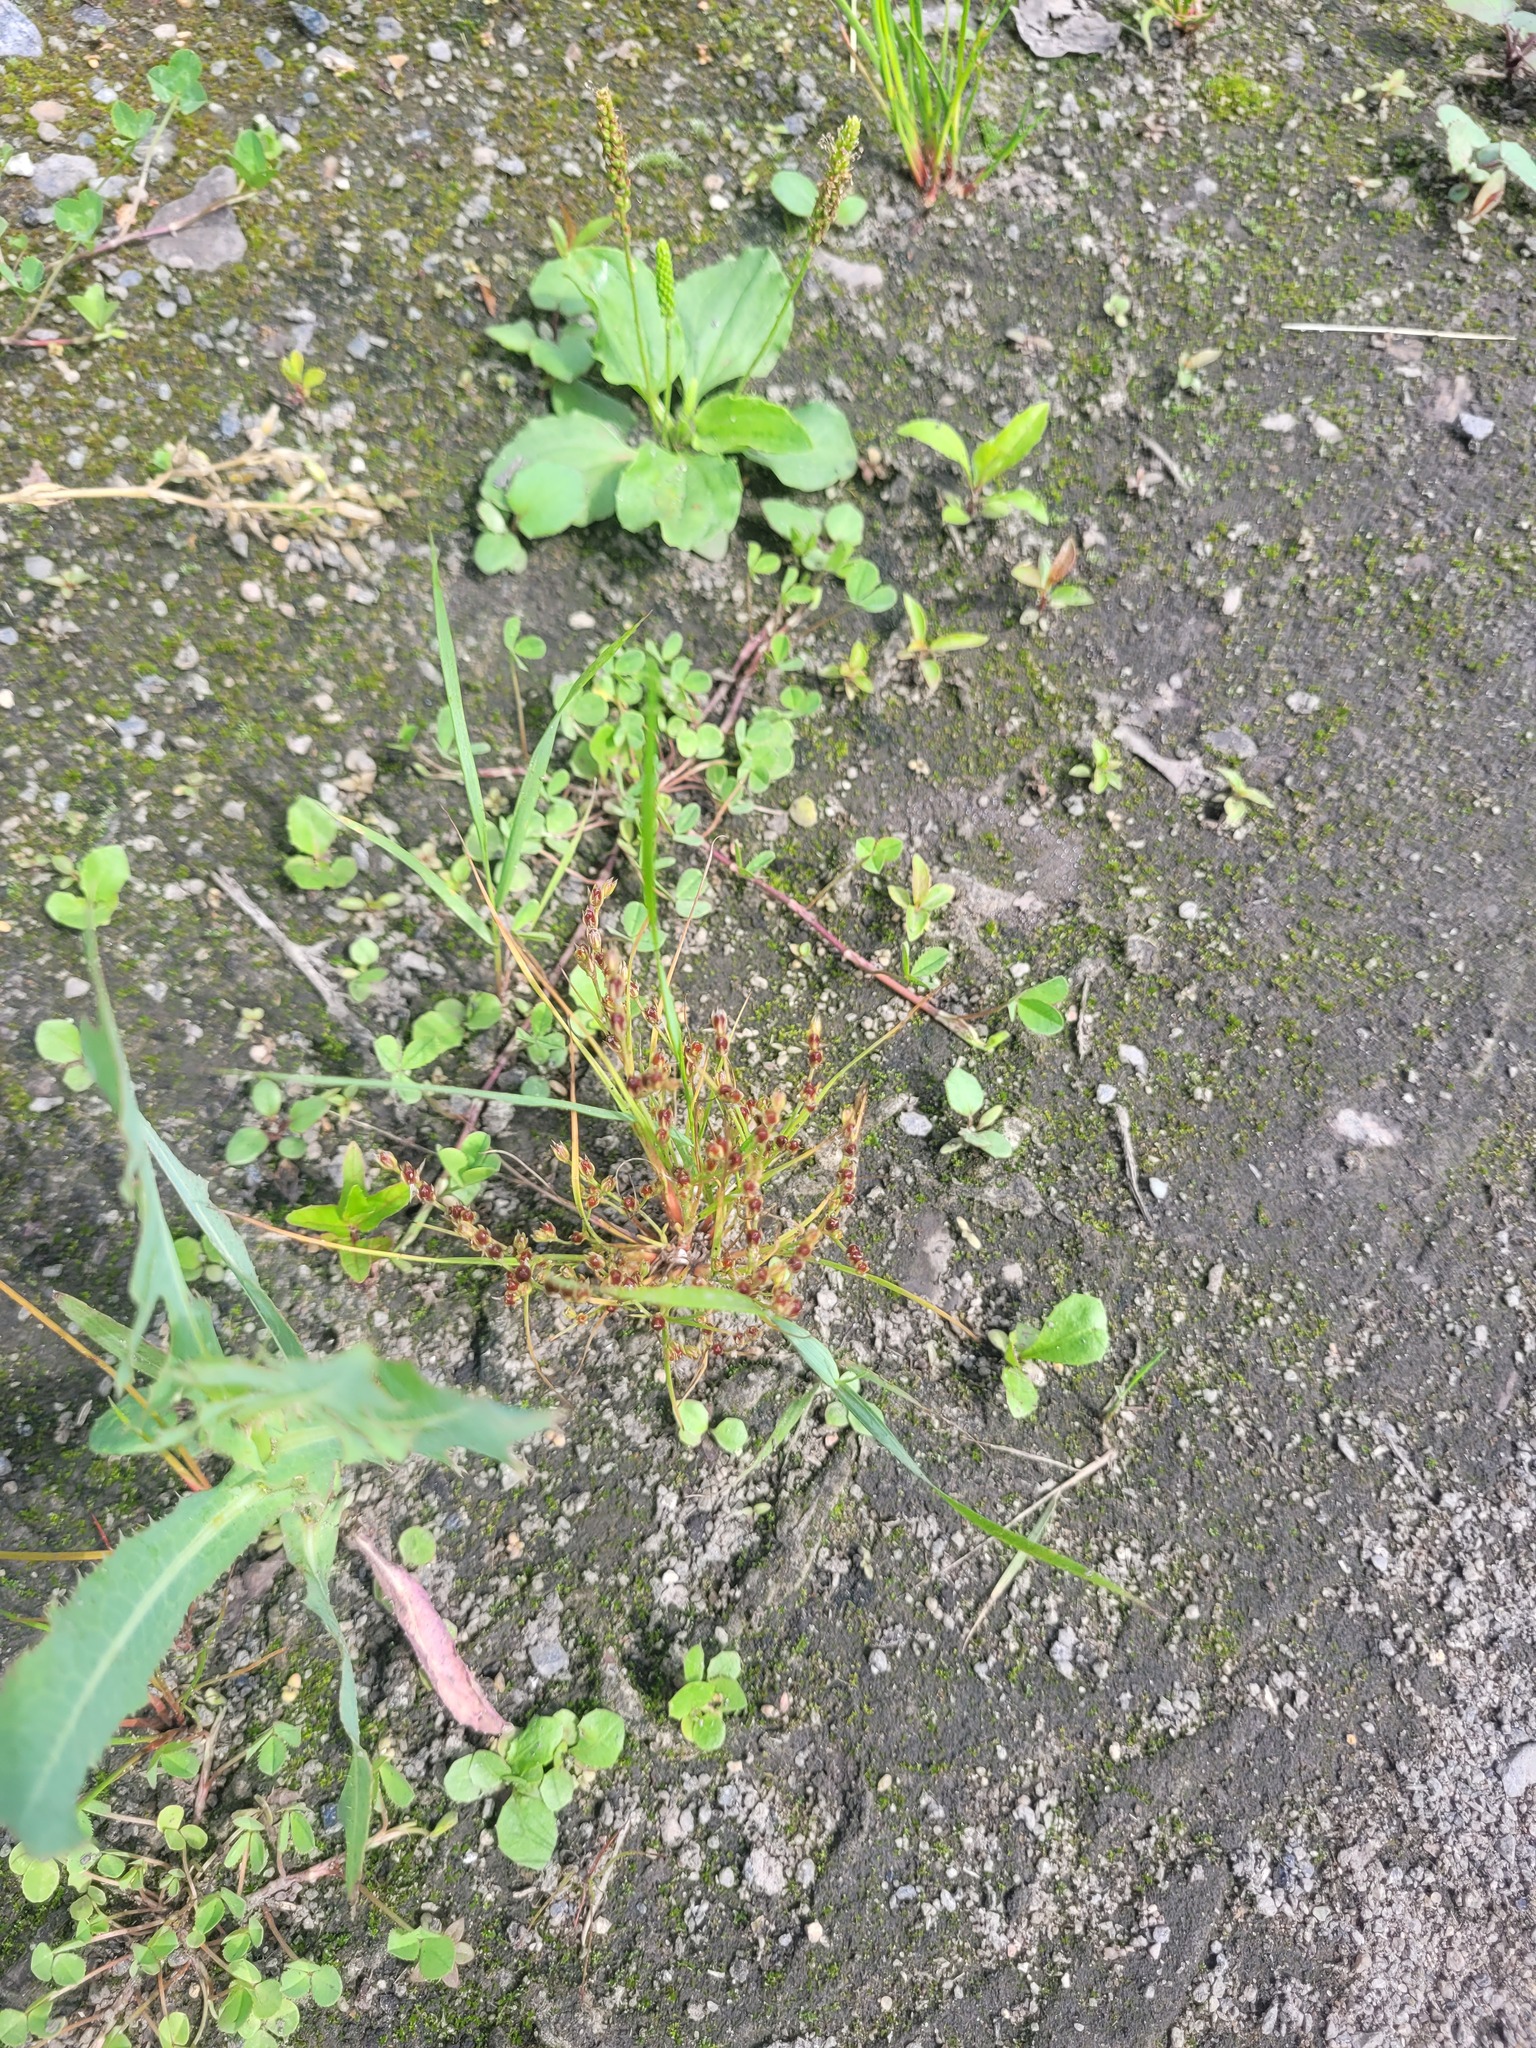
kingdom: Plantae
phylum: Tracheophyta
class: Liliopsida
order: Poales
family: Juncaceae
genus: Juncus
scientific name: Juncus bufonius
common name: Toad rush
